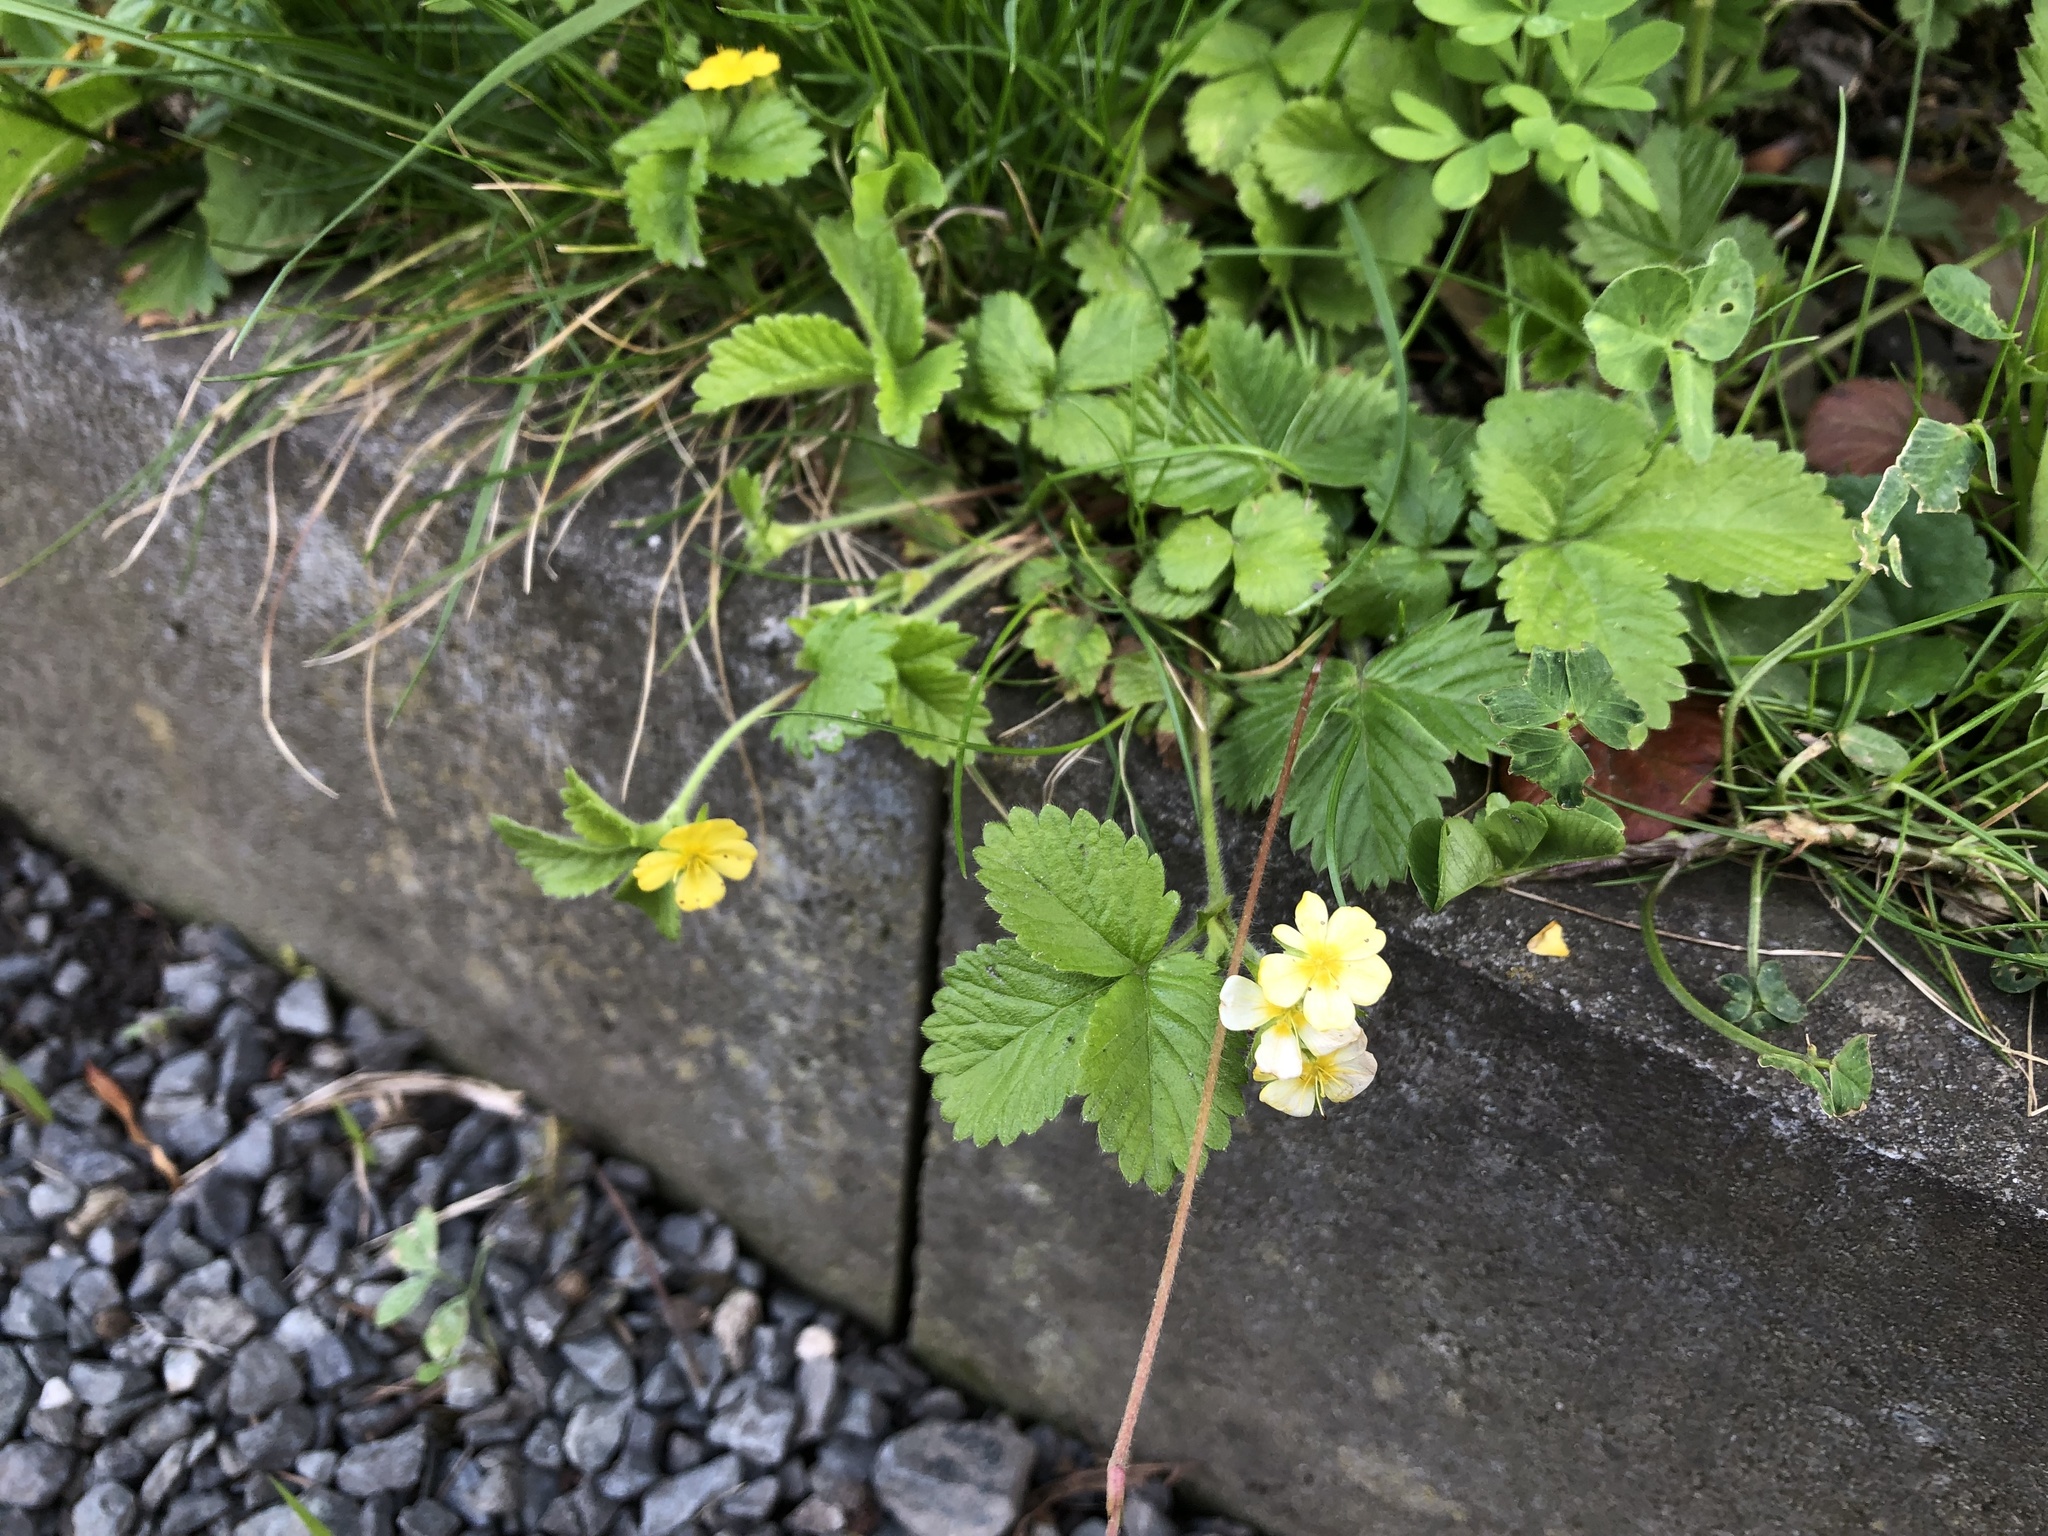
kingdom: Plantae
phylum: Tracheophyta
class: Magnoliopsida
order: Rosales
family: Rosaceae
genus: Potentilla
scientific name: Potentilla indica
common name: Yellow-flowered strawberry
